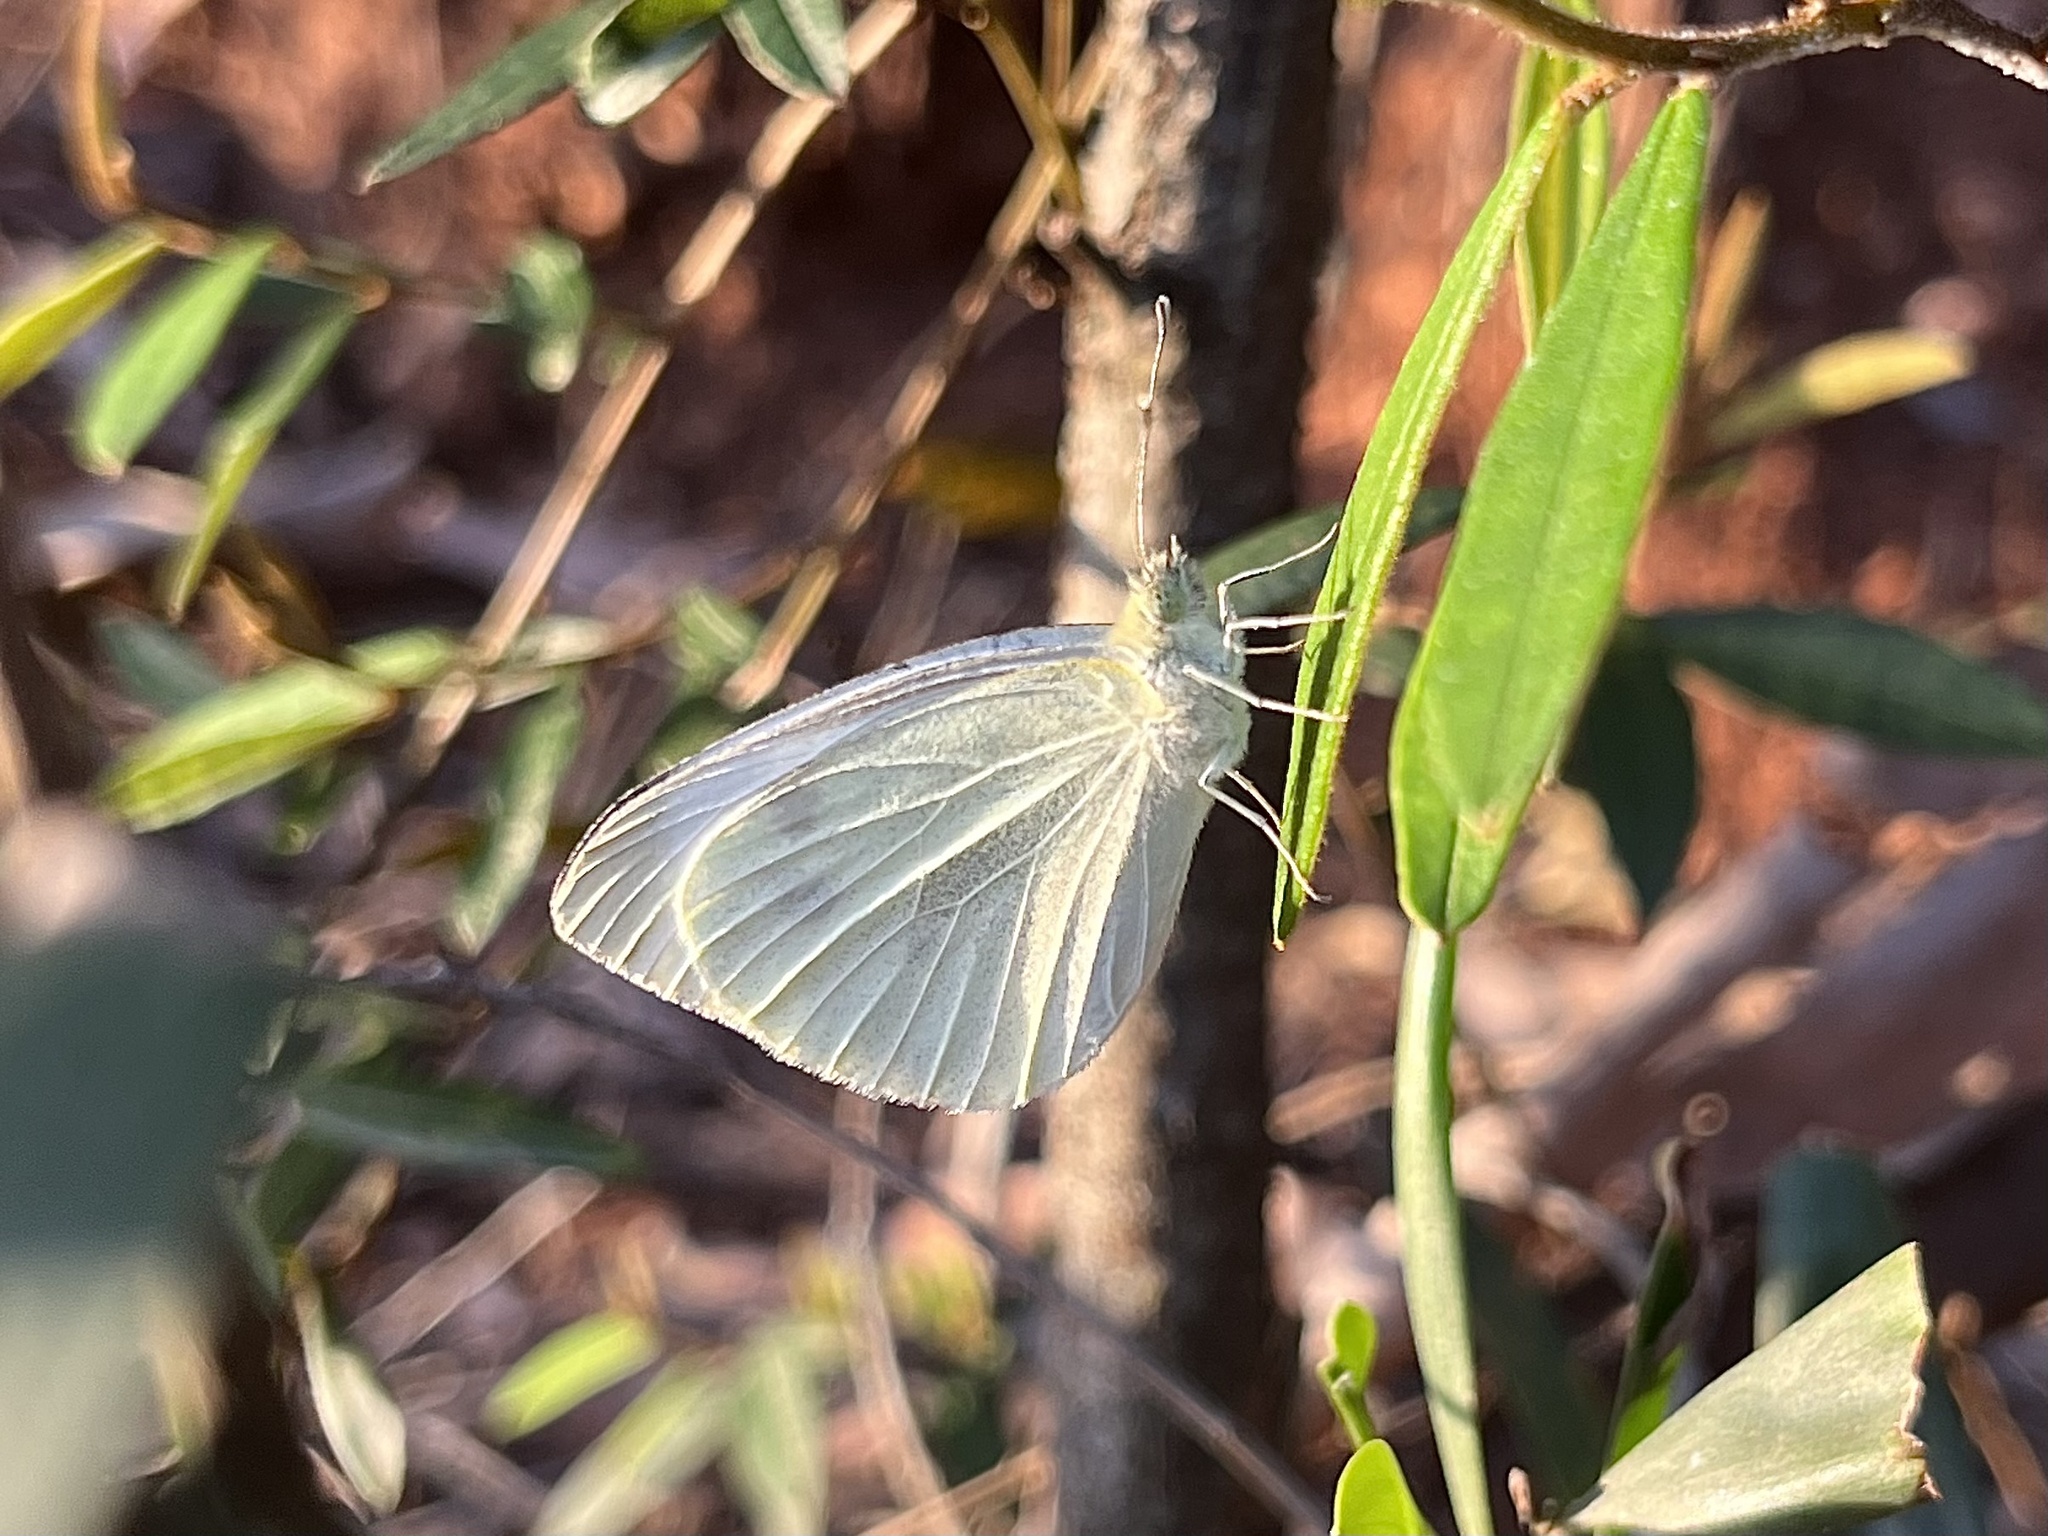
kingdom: Animalia
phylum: Arthropoda
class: Insecta
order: Lepidoptera
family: Pieridae
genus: Pieris
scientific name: Pieris rapae
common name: Small white
